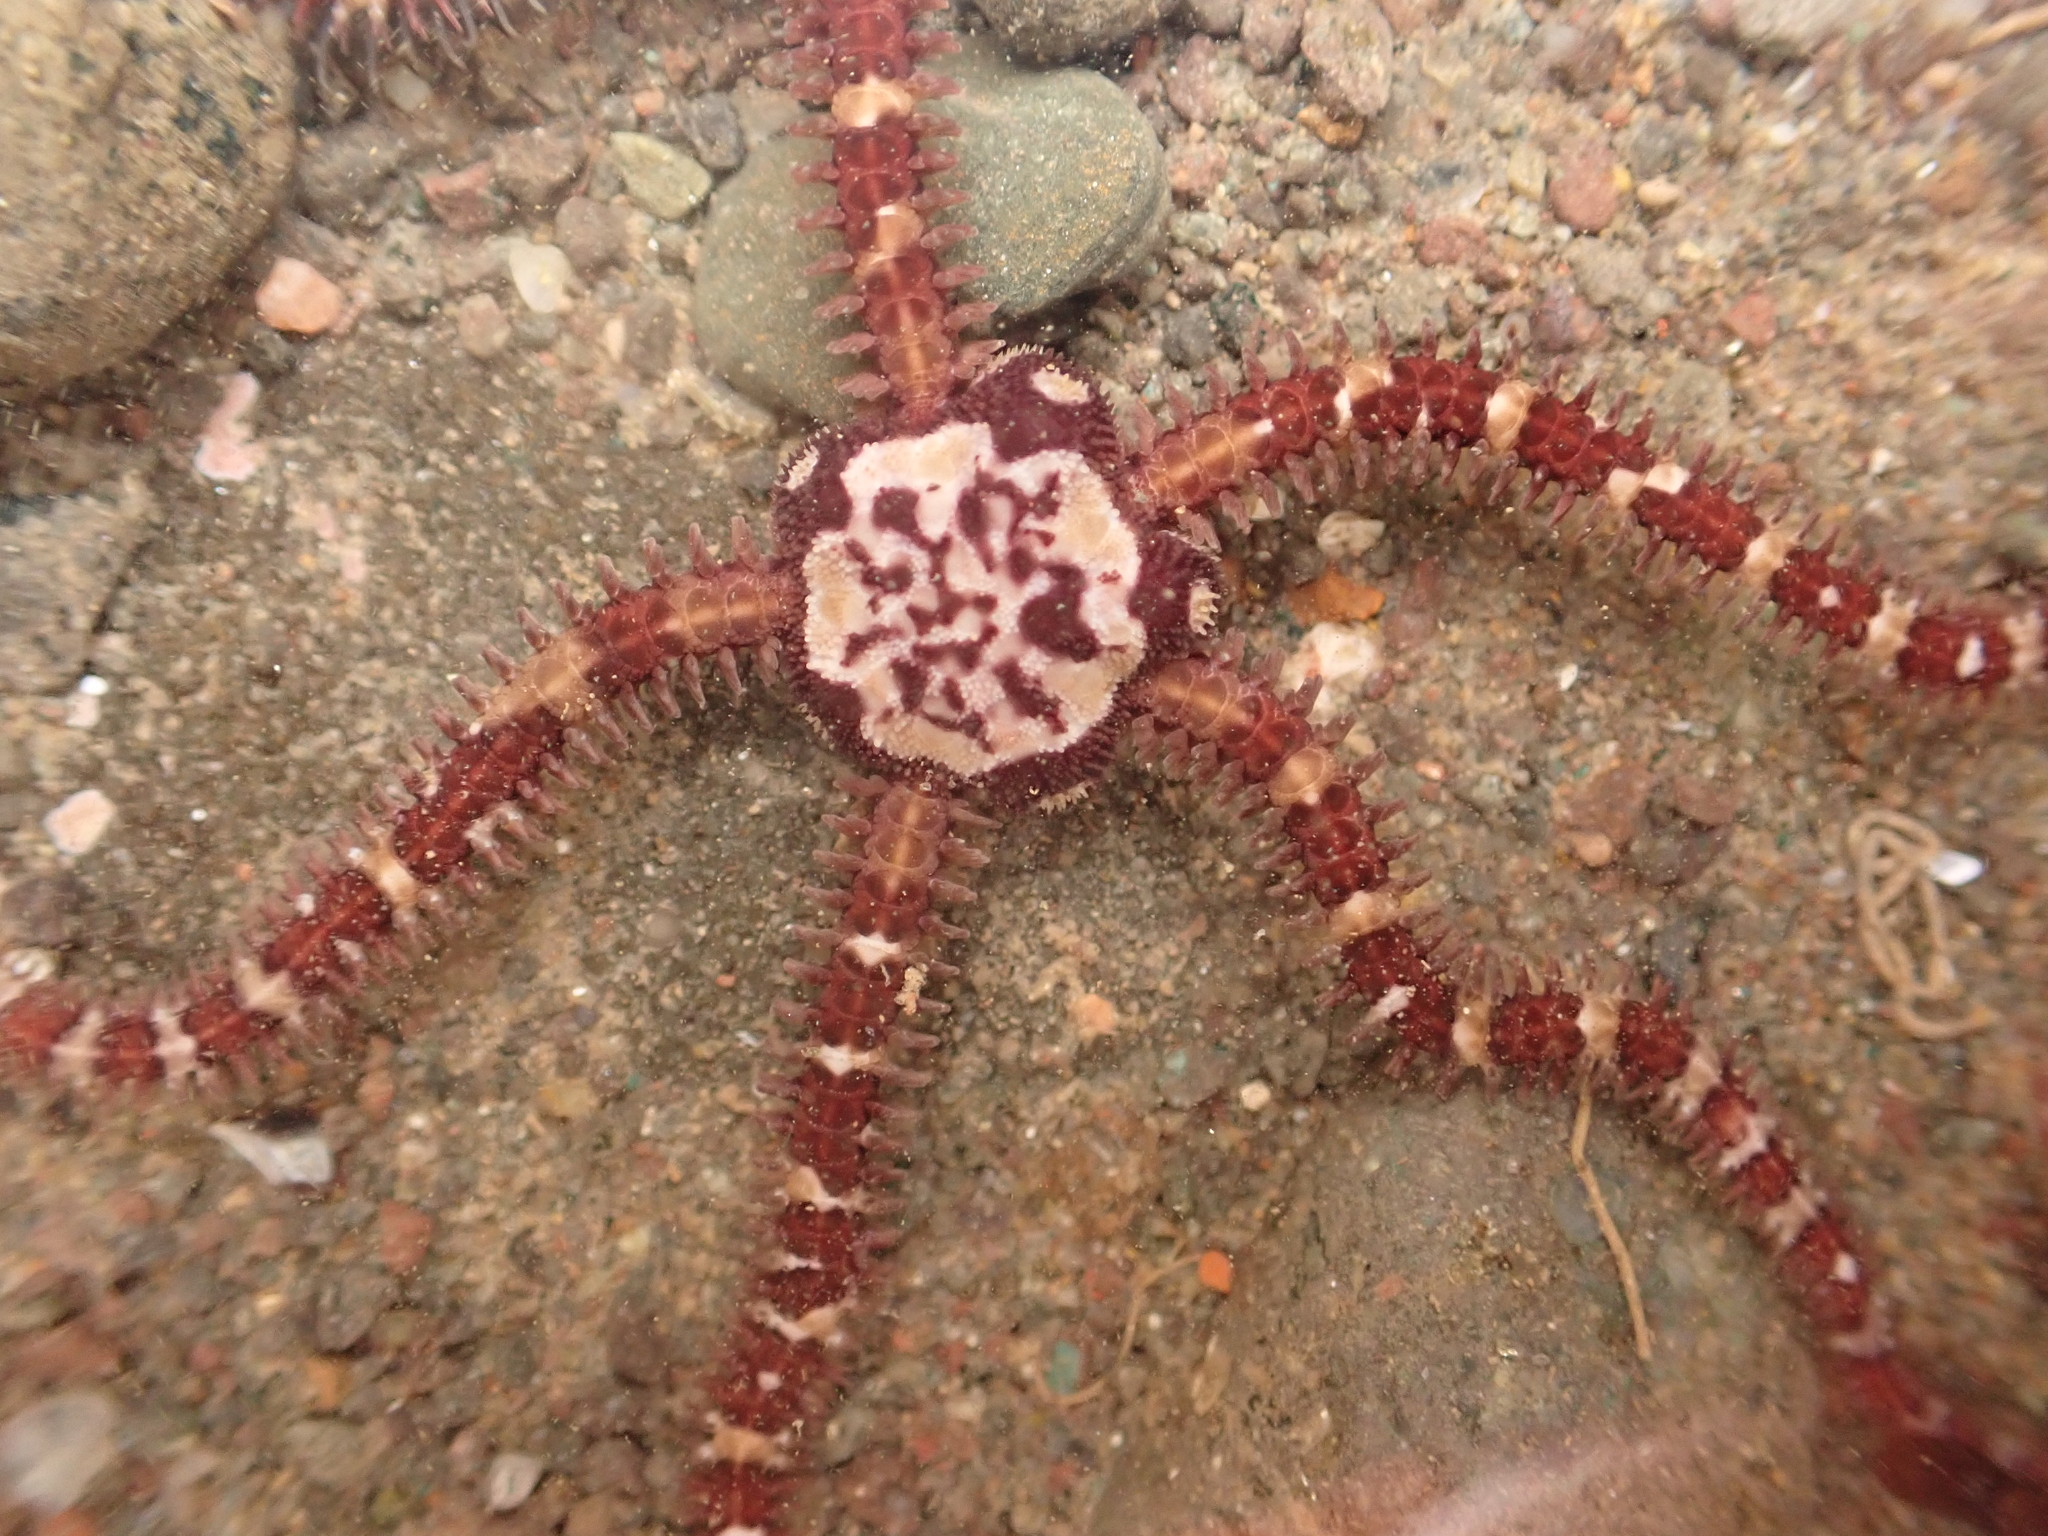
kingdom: Animalia
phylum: Echinodermata
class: Ophiuroidea
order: Amphilepidida
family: Ophiopholidae
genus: Ophiopholis
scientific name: Ophiopholis aculeata
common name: Crevice brittlestar
